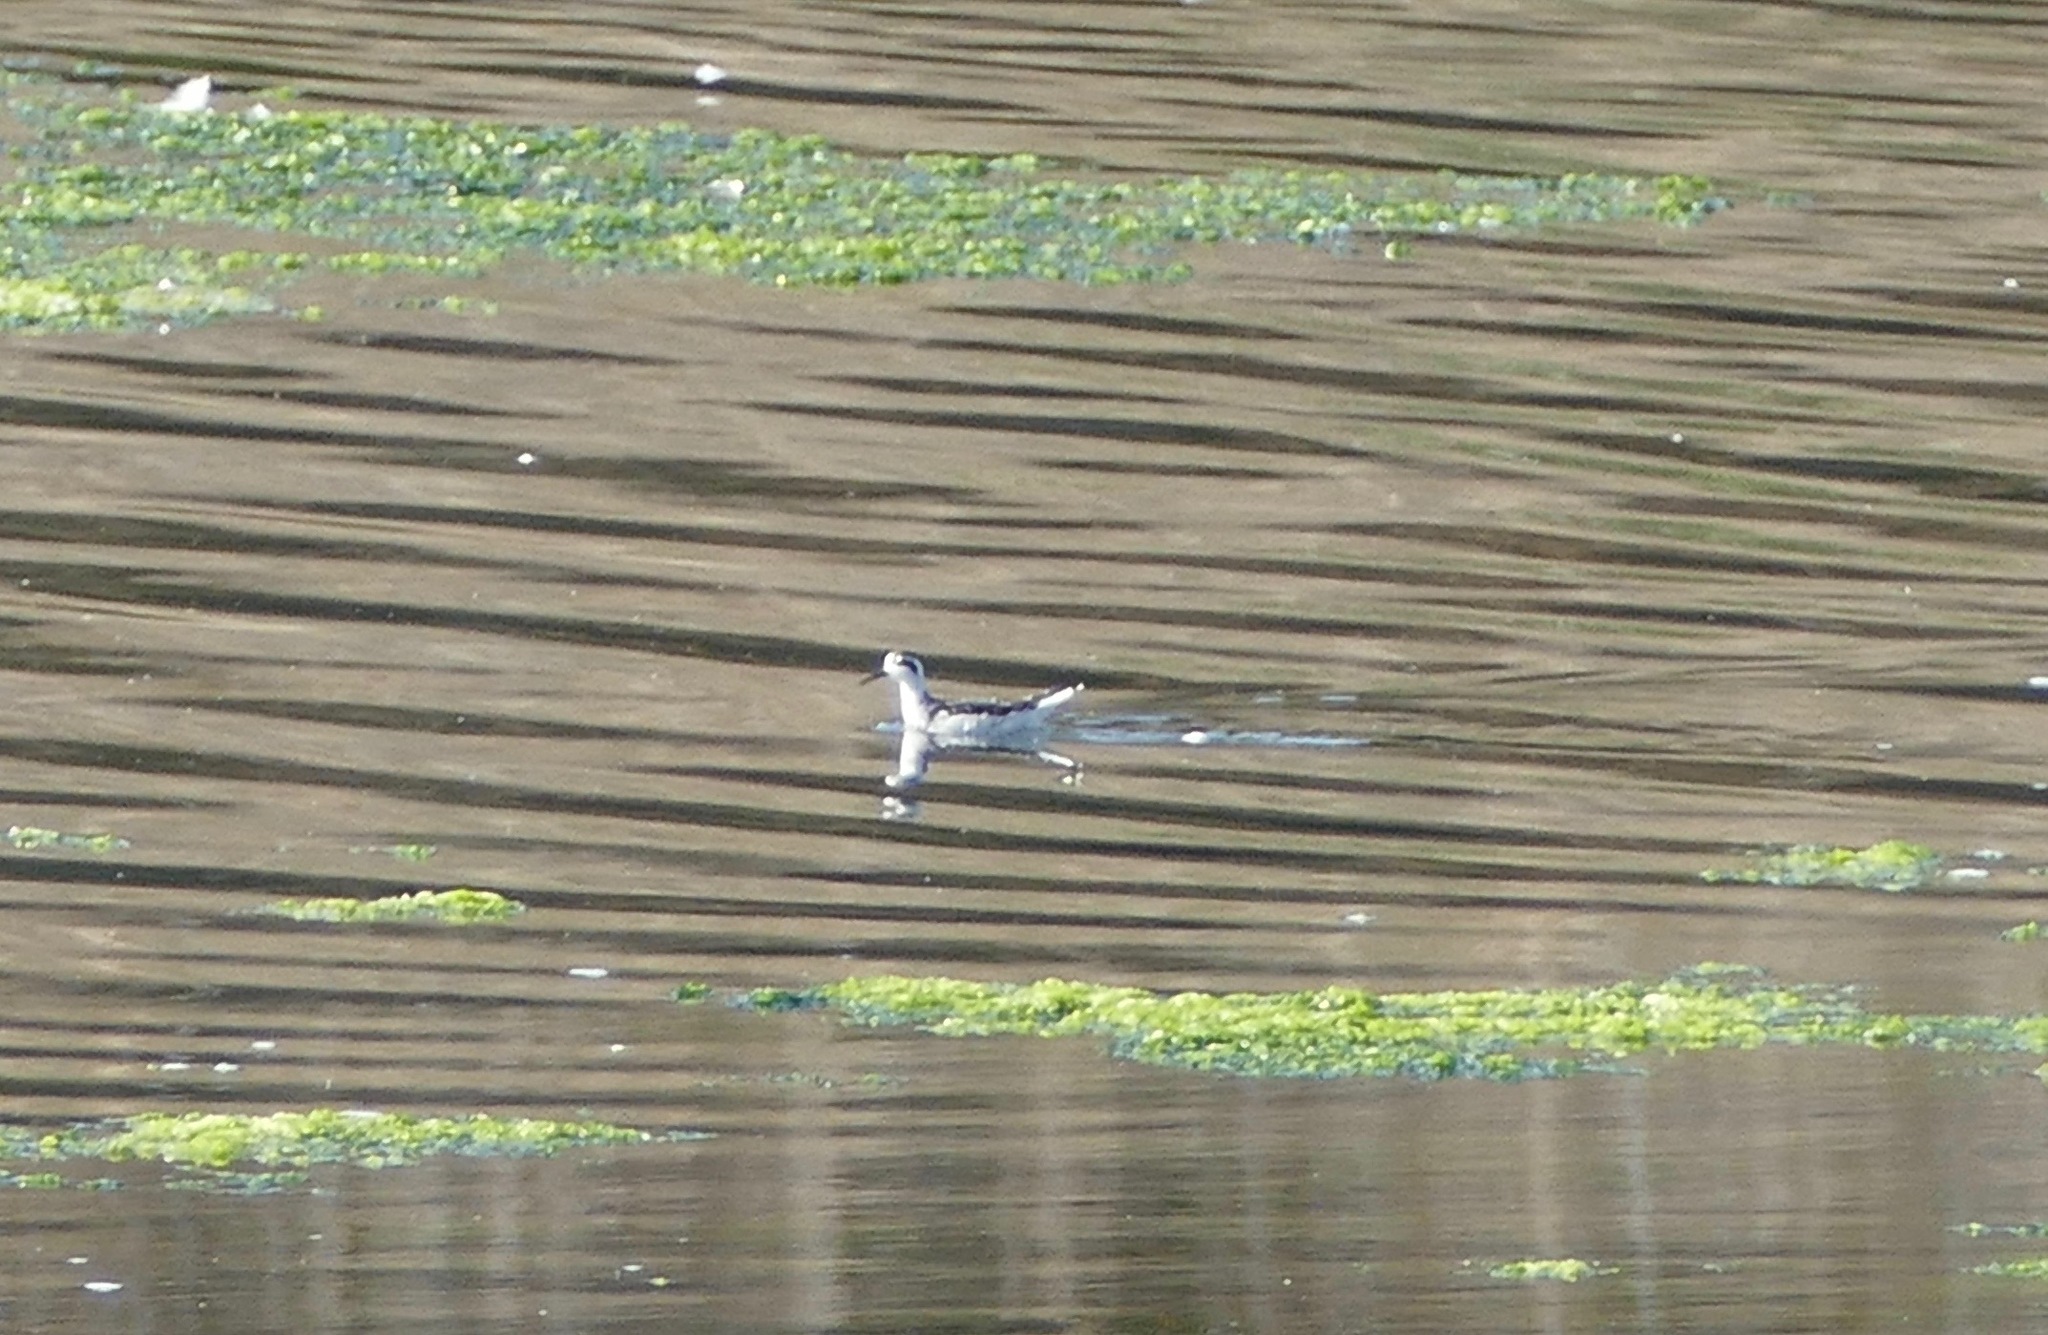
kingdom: Animalia
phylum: Chordata
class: Aves
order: Charadriiformes
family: Scolopacidae
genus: Phalaropus
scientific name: Phalaropus lobatus
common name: Red-necked phalarope
